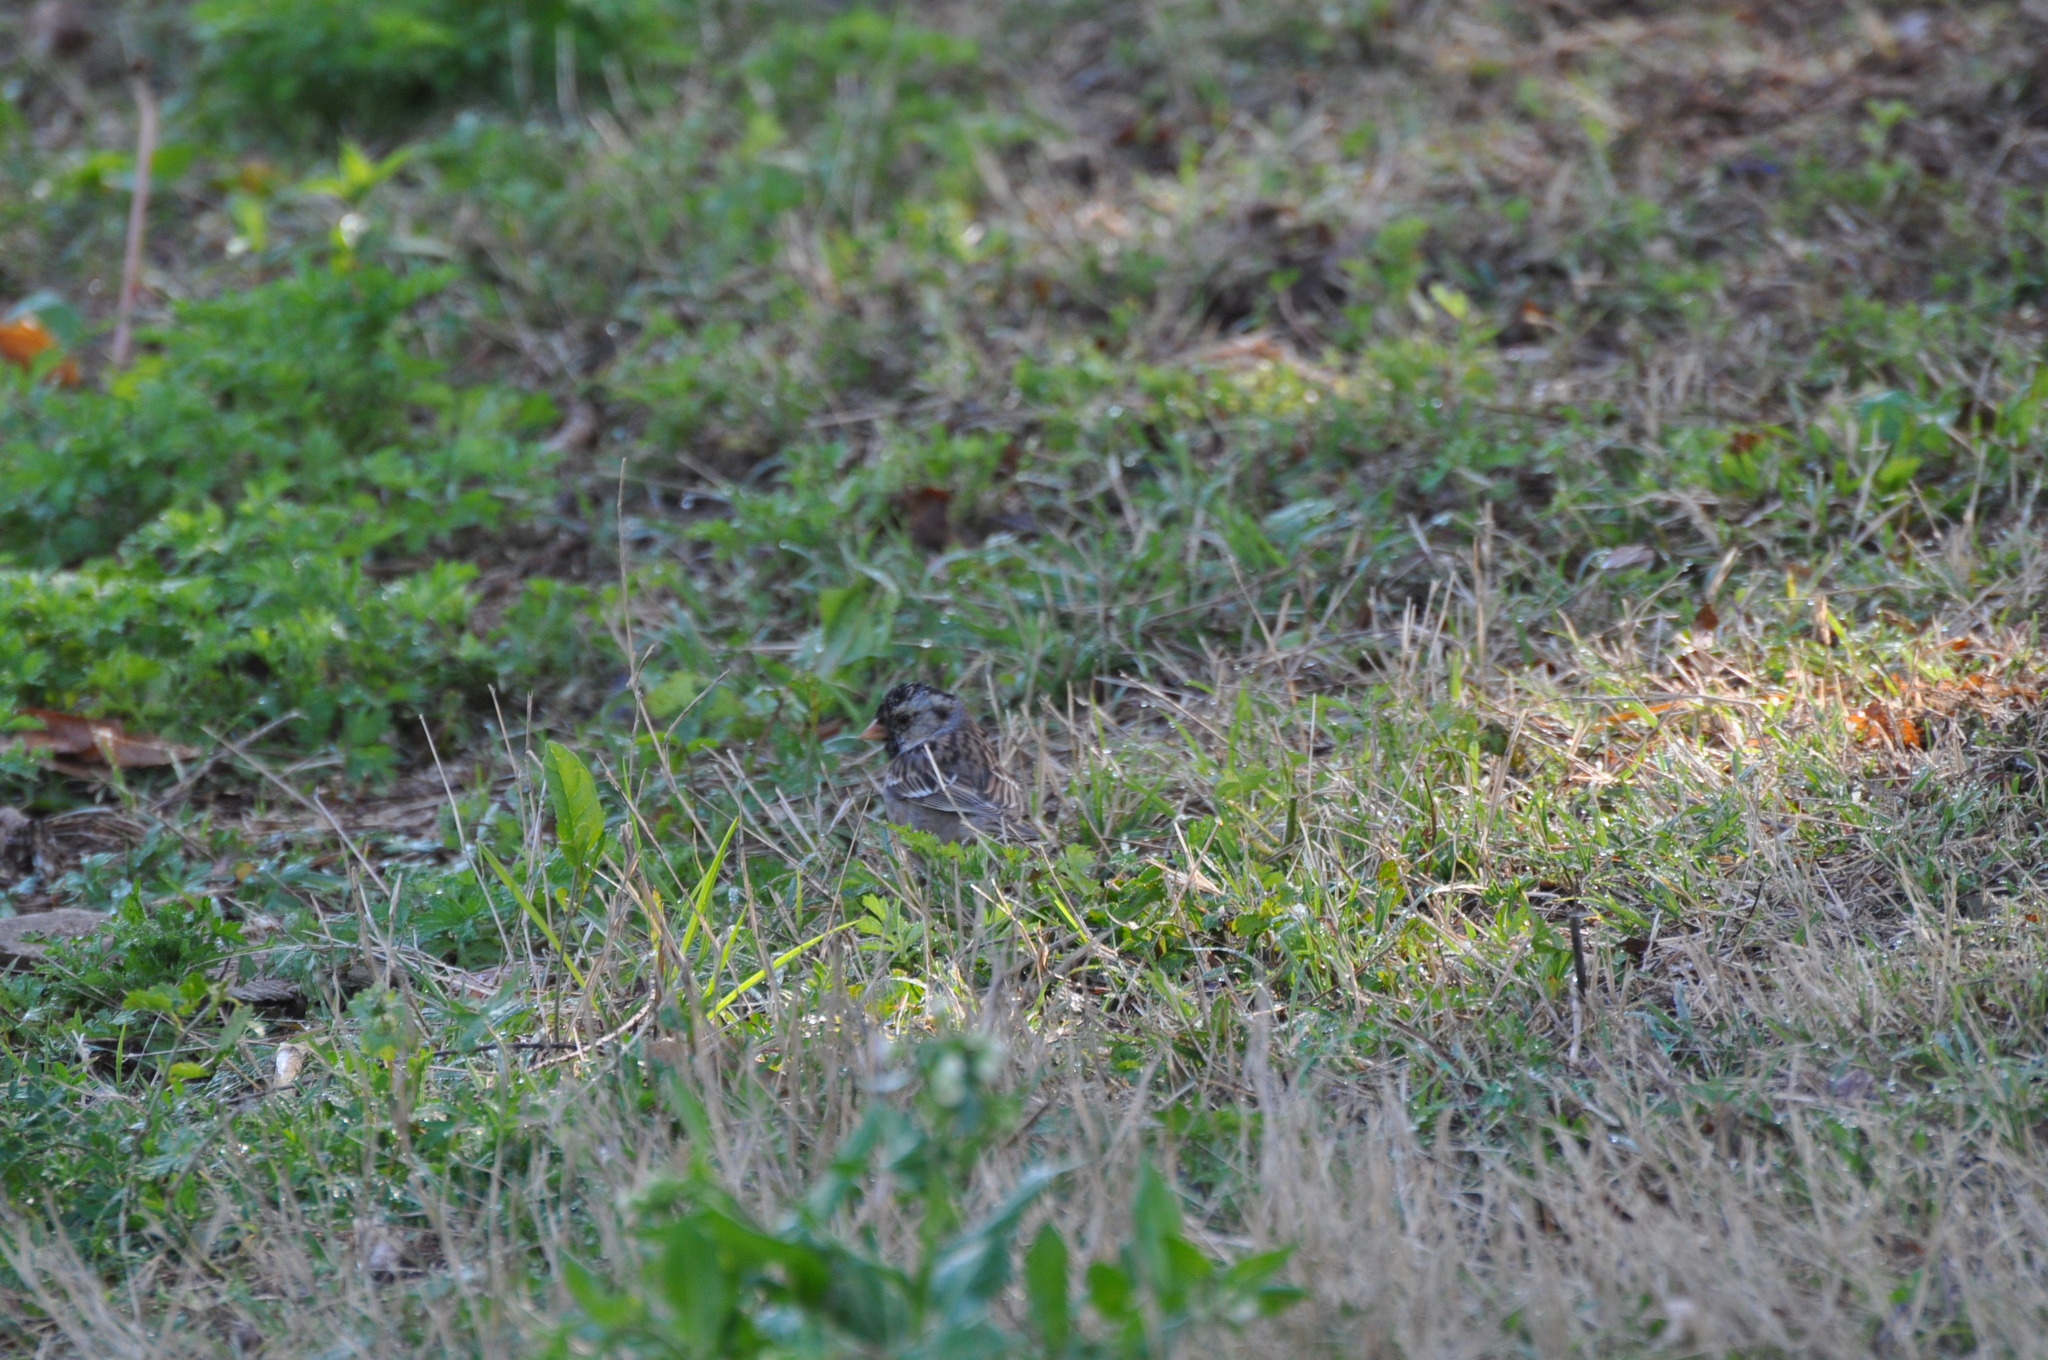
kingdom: Animalia
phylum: Chordata
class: Aves
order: Passeriformes
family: Passerellidae
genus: Zonotrichia
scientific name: Zonotrichia querula
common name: Harris's sparrow
